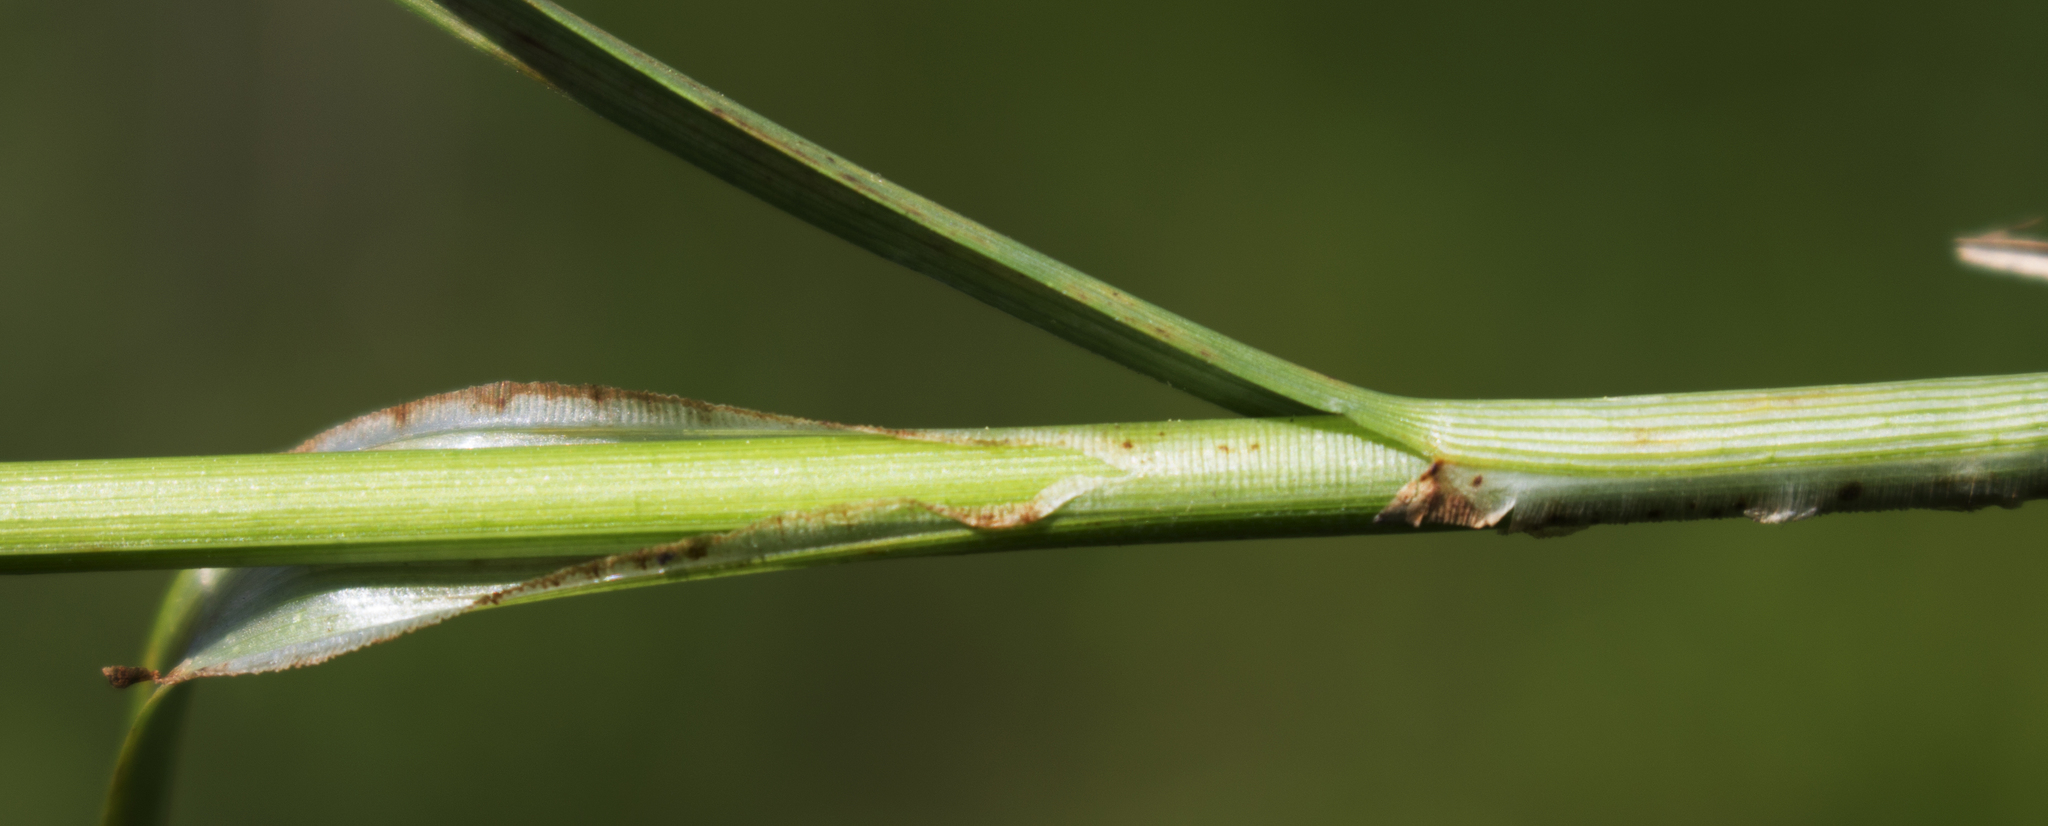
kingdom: Plantae
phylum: Tracheophyta
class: Liliopsida
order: Poales
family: Cyperaceae
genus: Carex
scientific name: Carex vulpinoidea
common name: American fox-sedge
